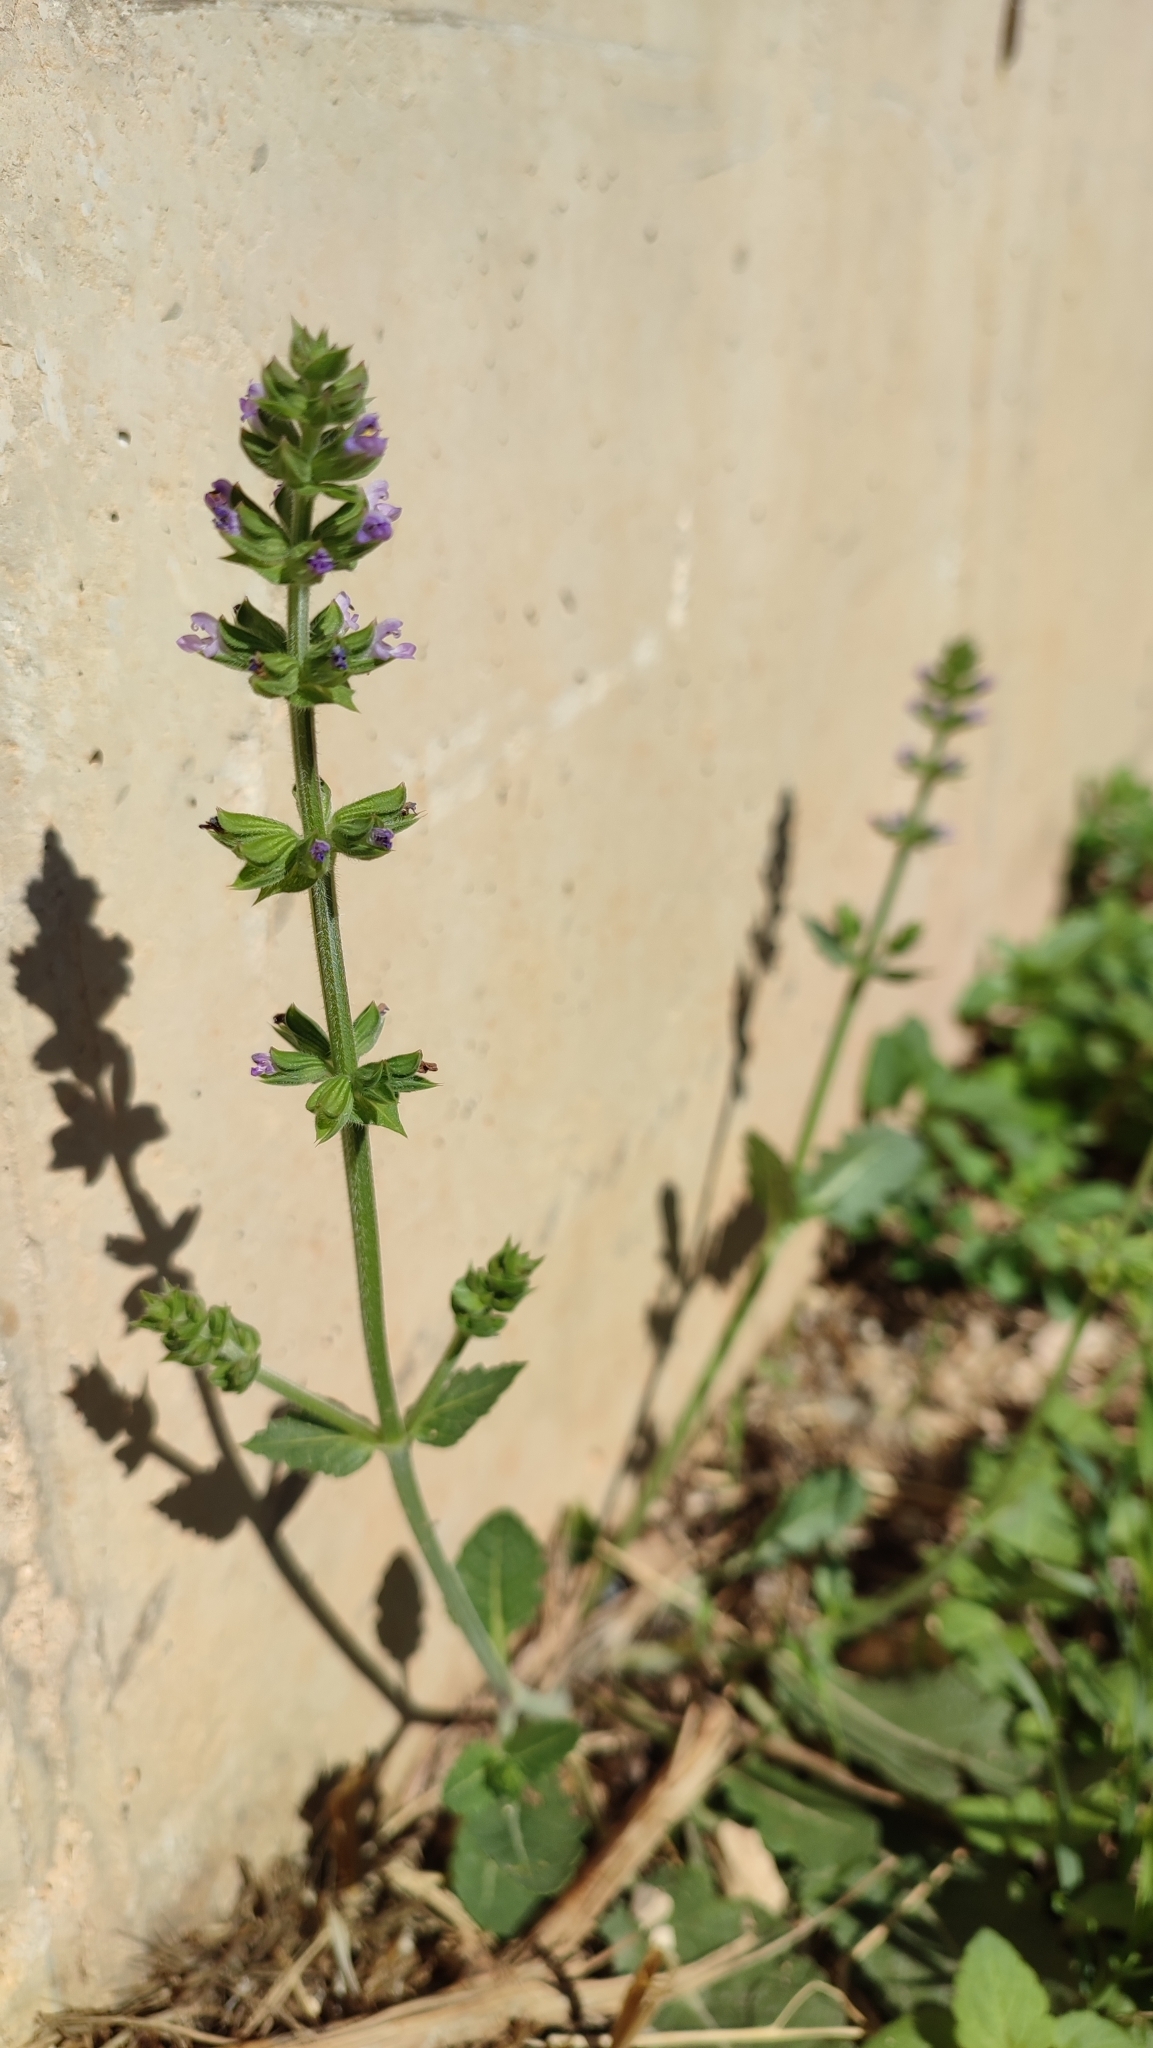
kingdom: Plantae
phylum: Tracheophyta
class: Magnoliopsida
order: Lamiales
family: Lamiaceae
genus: Salvia
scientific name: Salvia verbenaca
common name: Wild clary
